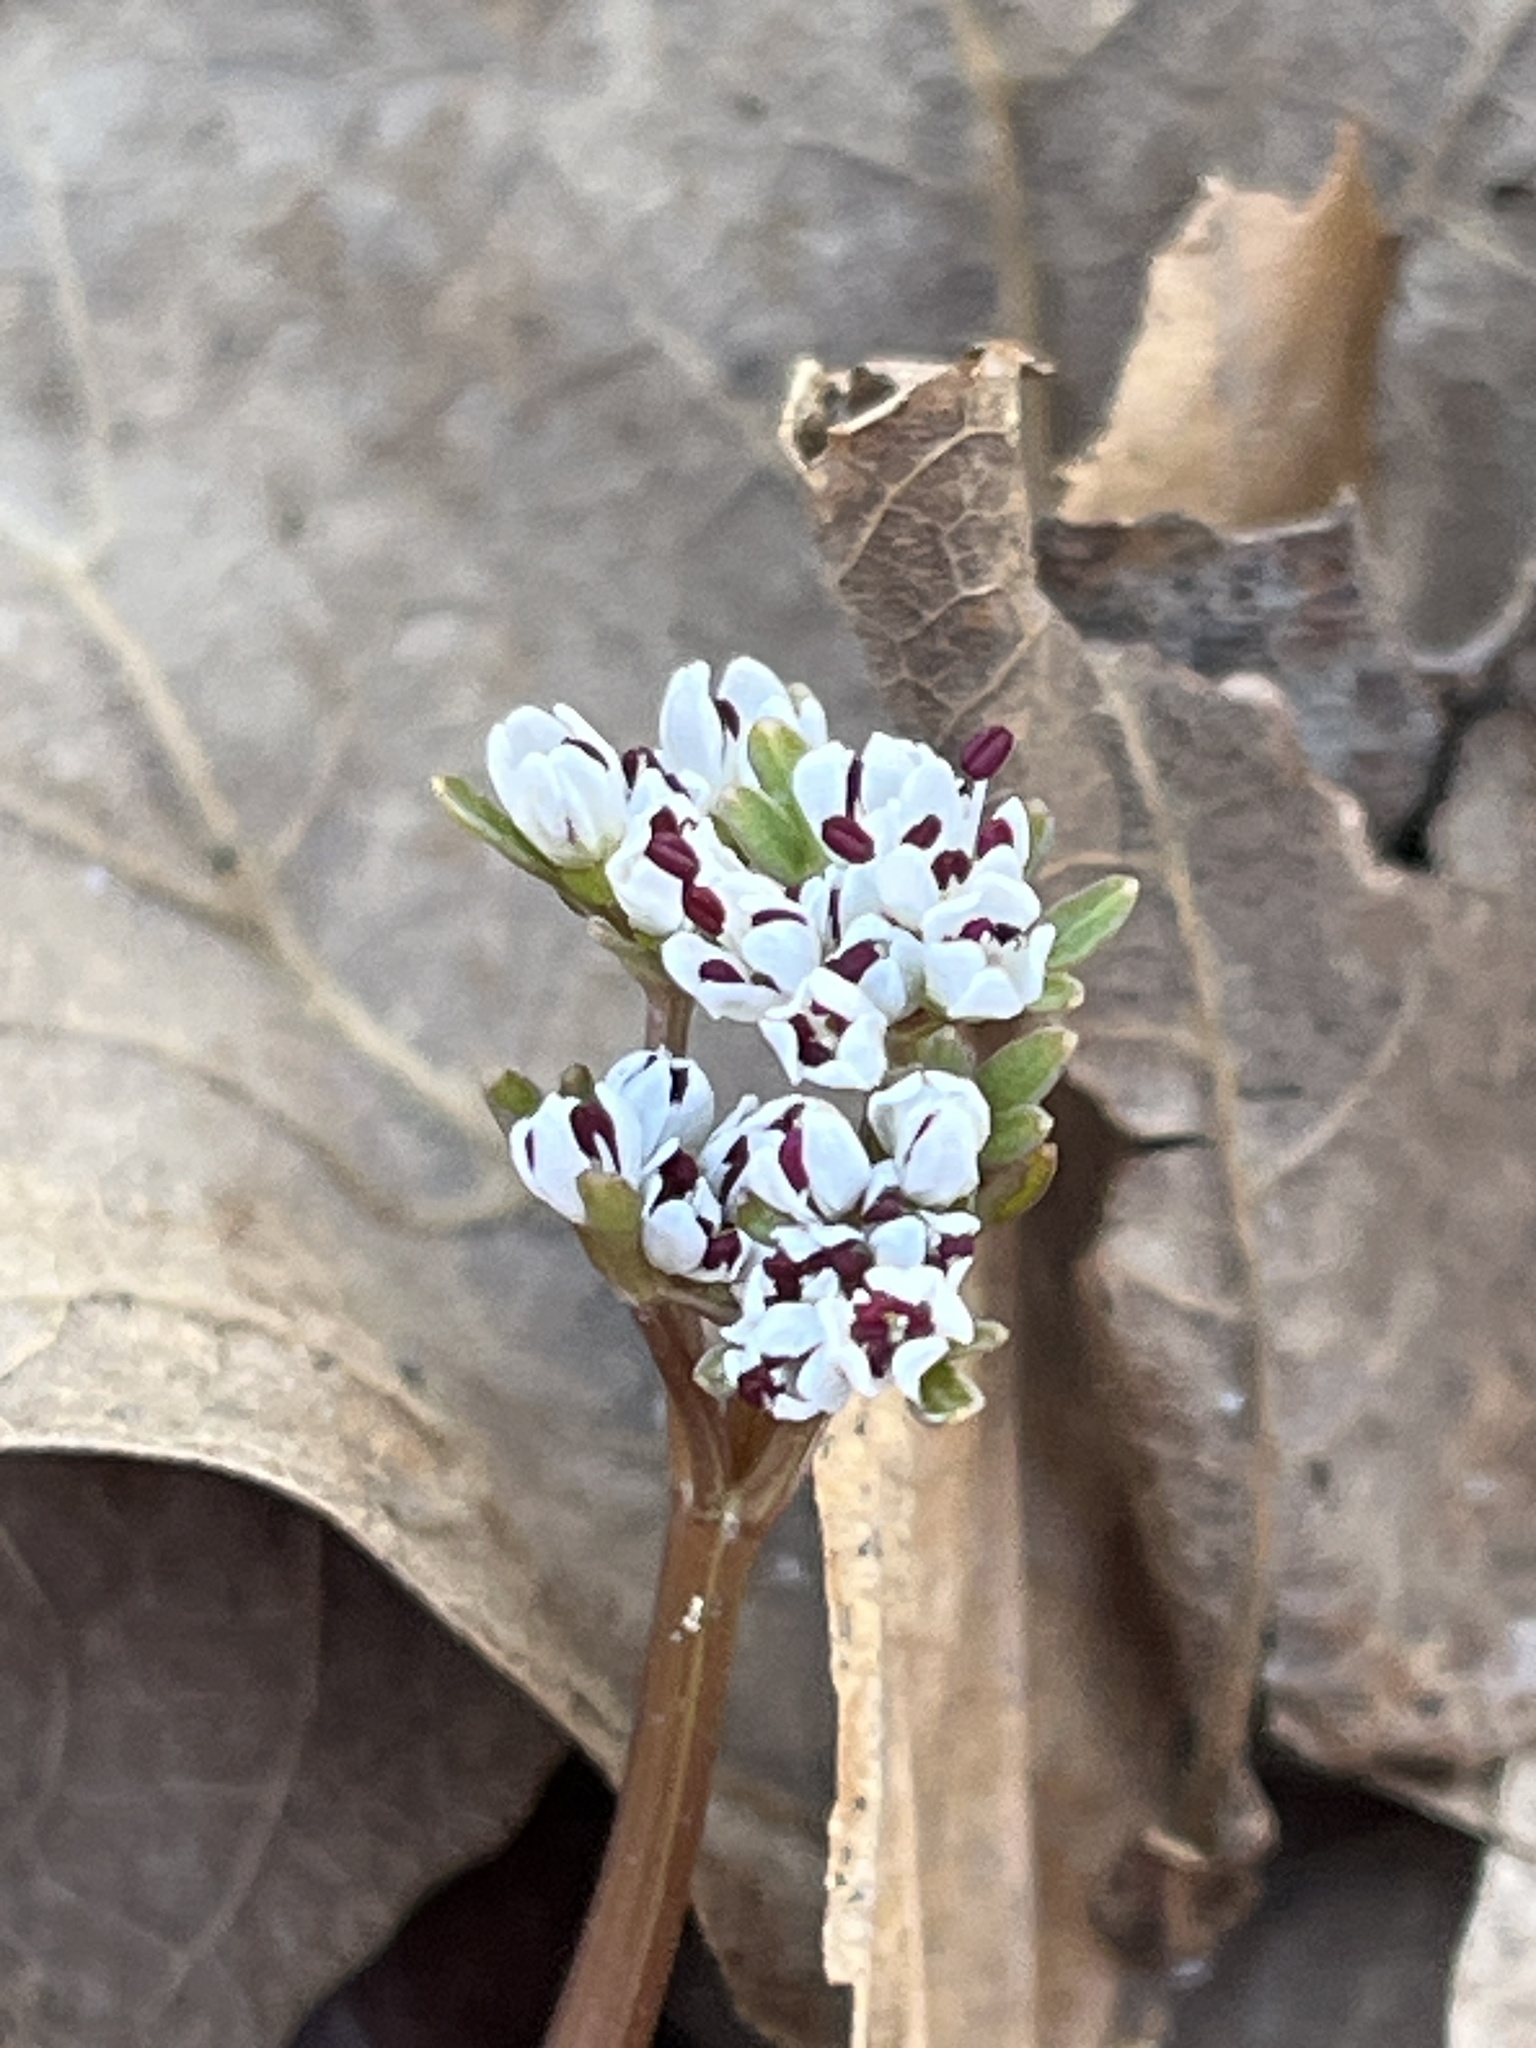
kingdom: Plantae
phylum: Tracheophyta
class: Magnoliopsida
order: Apiales
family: Apiaceae
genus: Erigenia
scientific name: Erigenia bulbosa
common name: Pepper-and-salt
